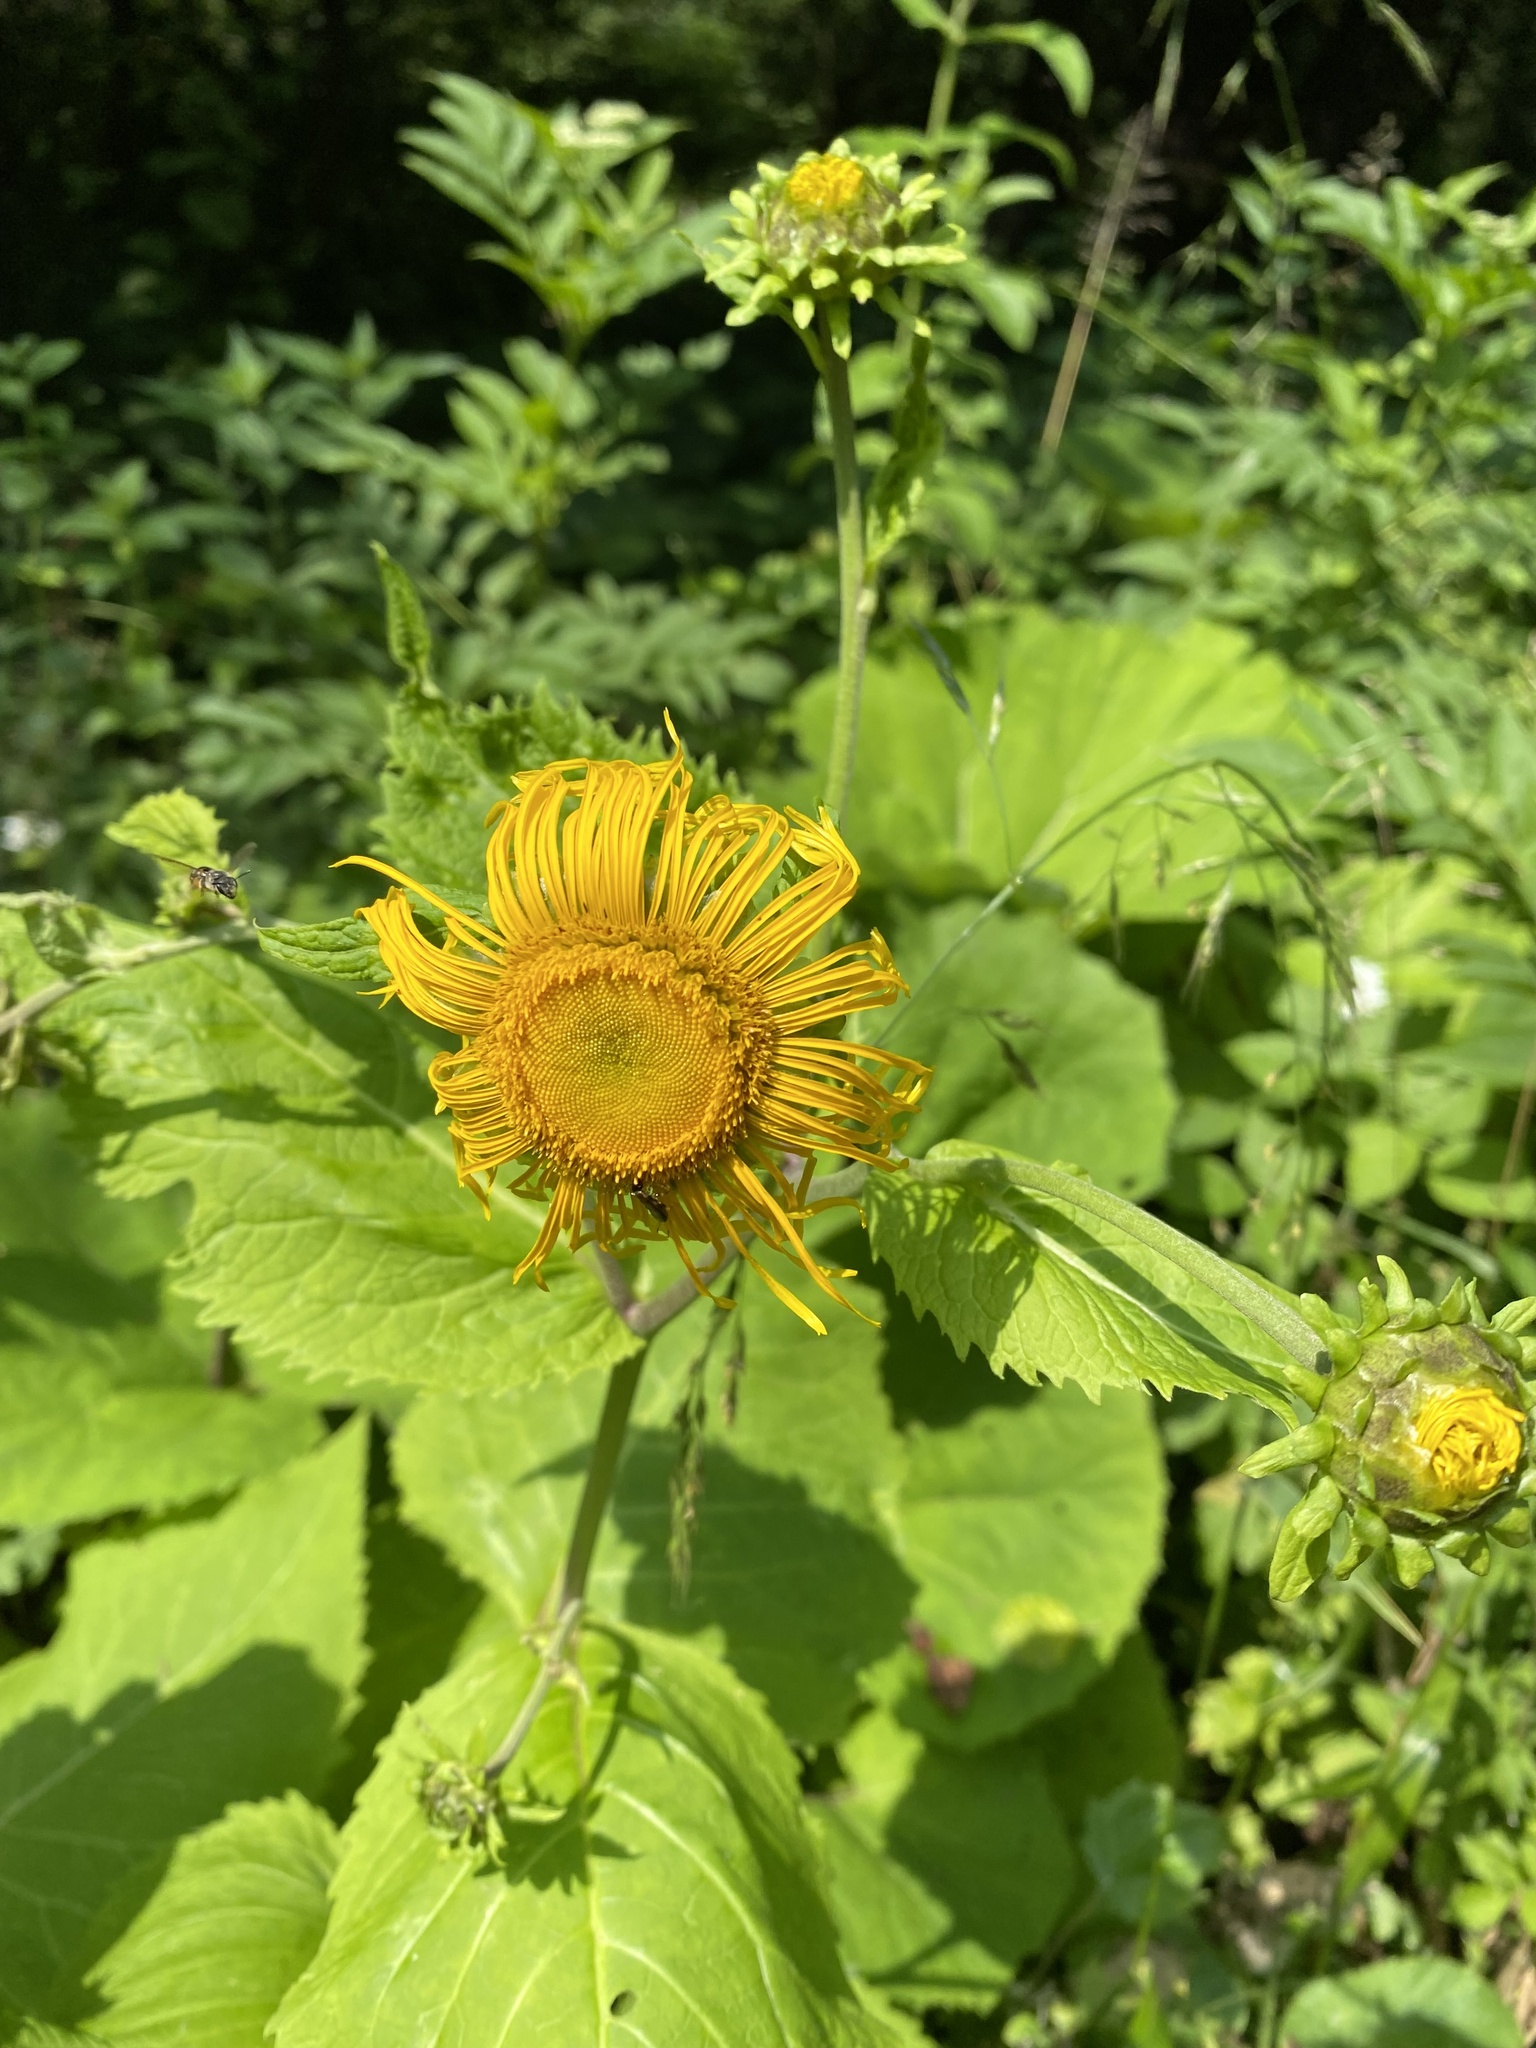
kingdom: Plantae
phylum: Tracheophyta
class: Magnoliopsida
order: Asterales
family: Asteraceae
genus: Telekia
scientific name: Telekia speciosa
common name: Yellow oxeye
